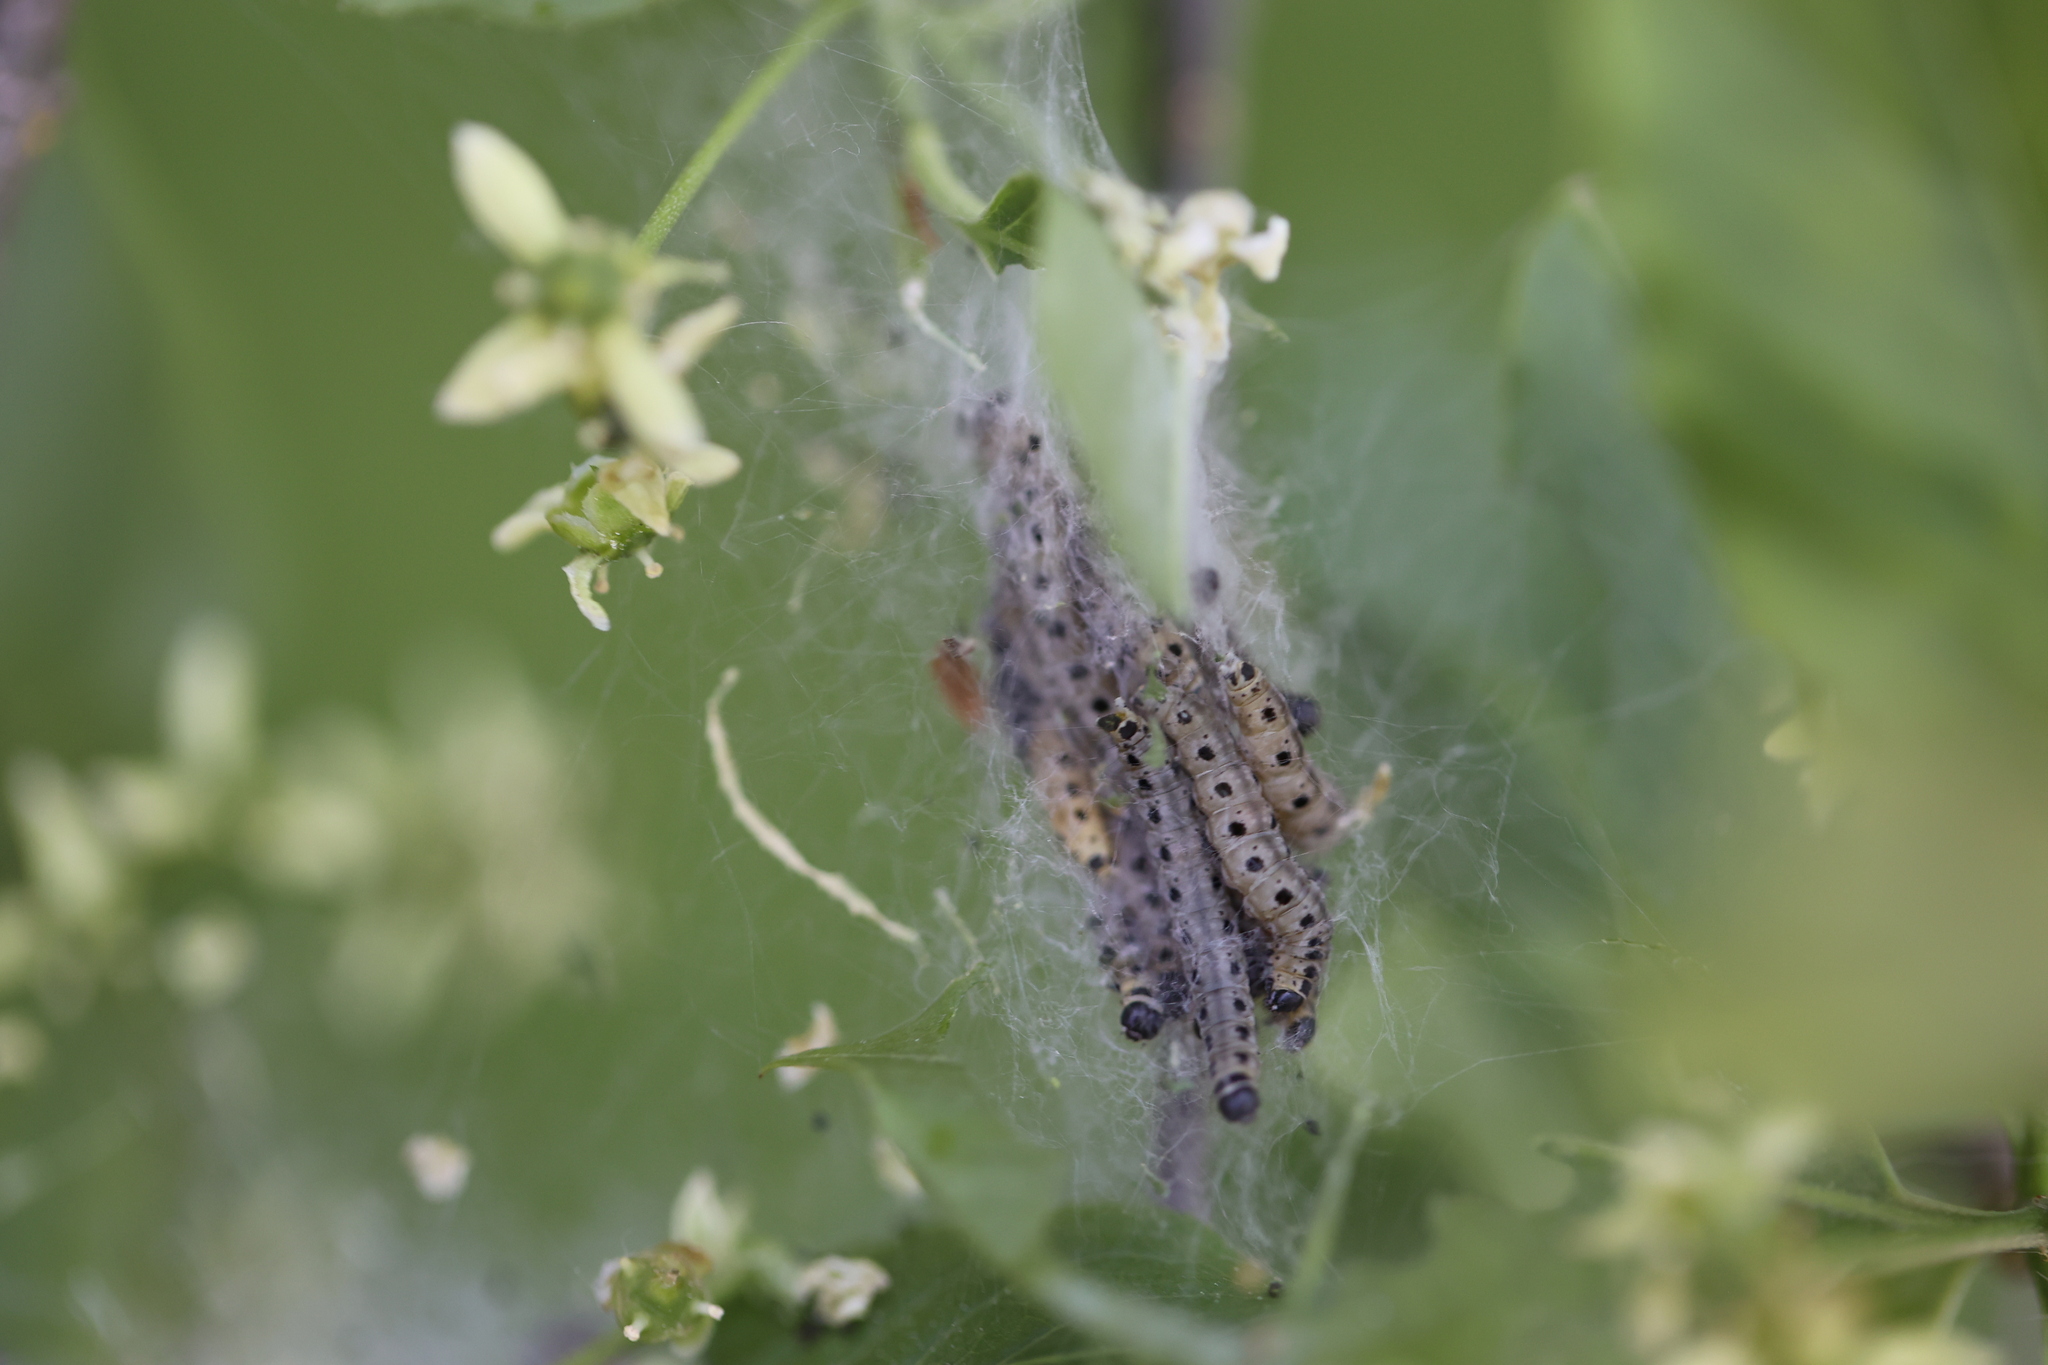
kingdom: Animalia
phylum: Arthropoda
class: Insecta
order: Lepidoptera
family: Yponomeutidae
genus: Yponomeuta
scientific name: Yponomeuta cagnagellus
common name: Spindle ermine
